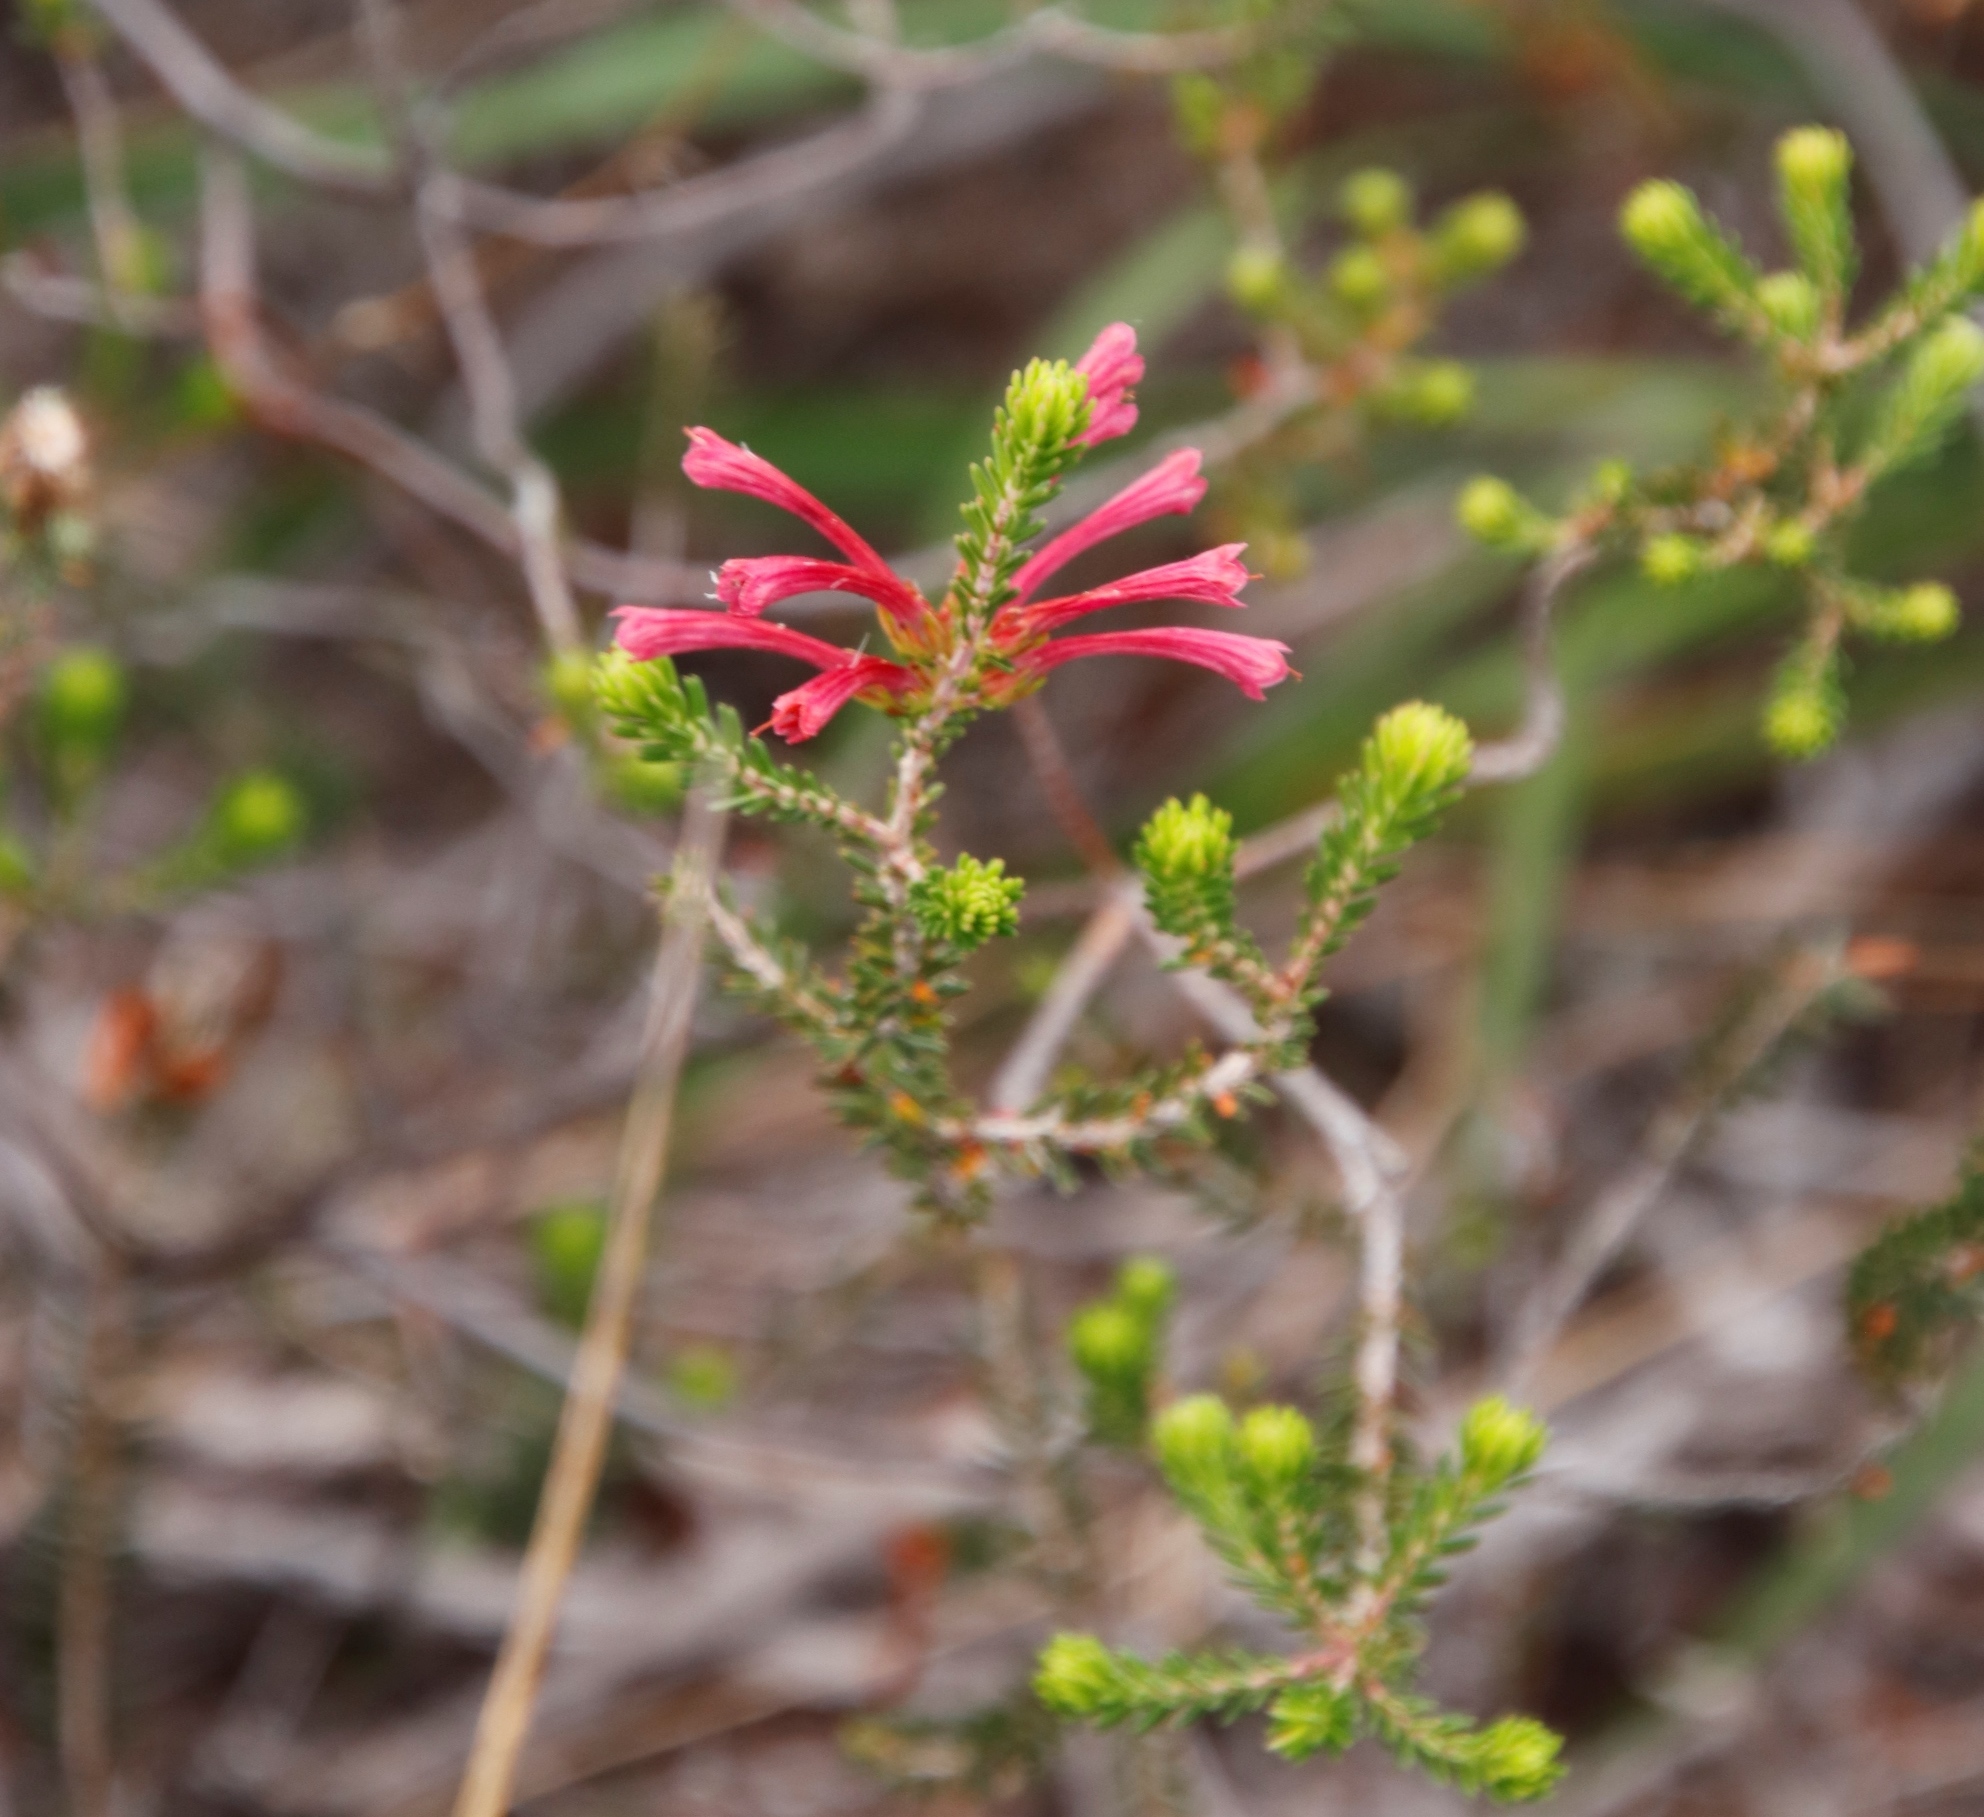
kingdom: Plantae
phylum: Tracheophyta
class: Magnoliopsida
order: Ericales
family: Ericaceae
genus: Erica
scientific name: Erica abietina
